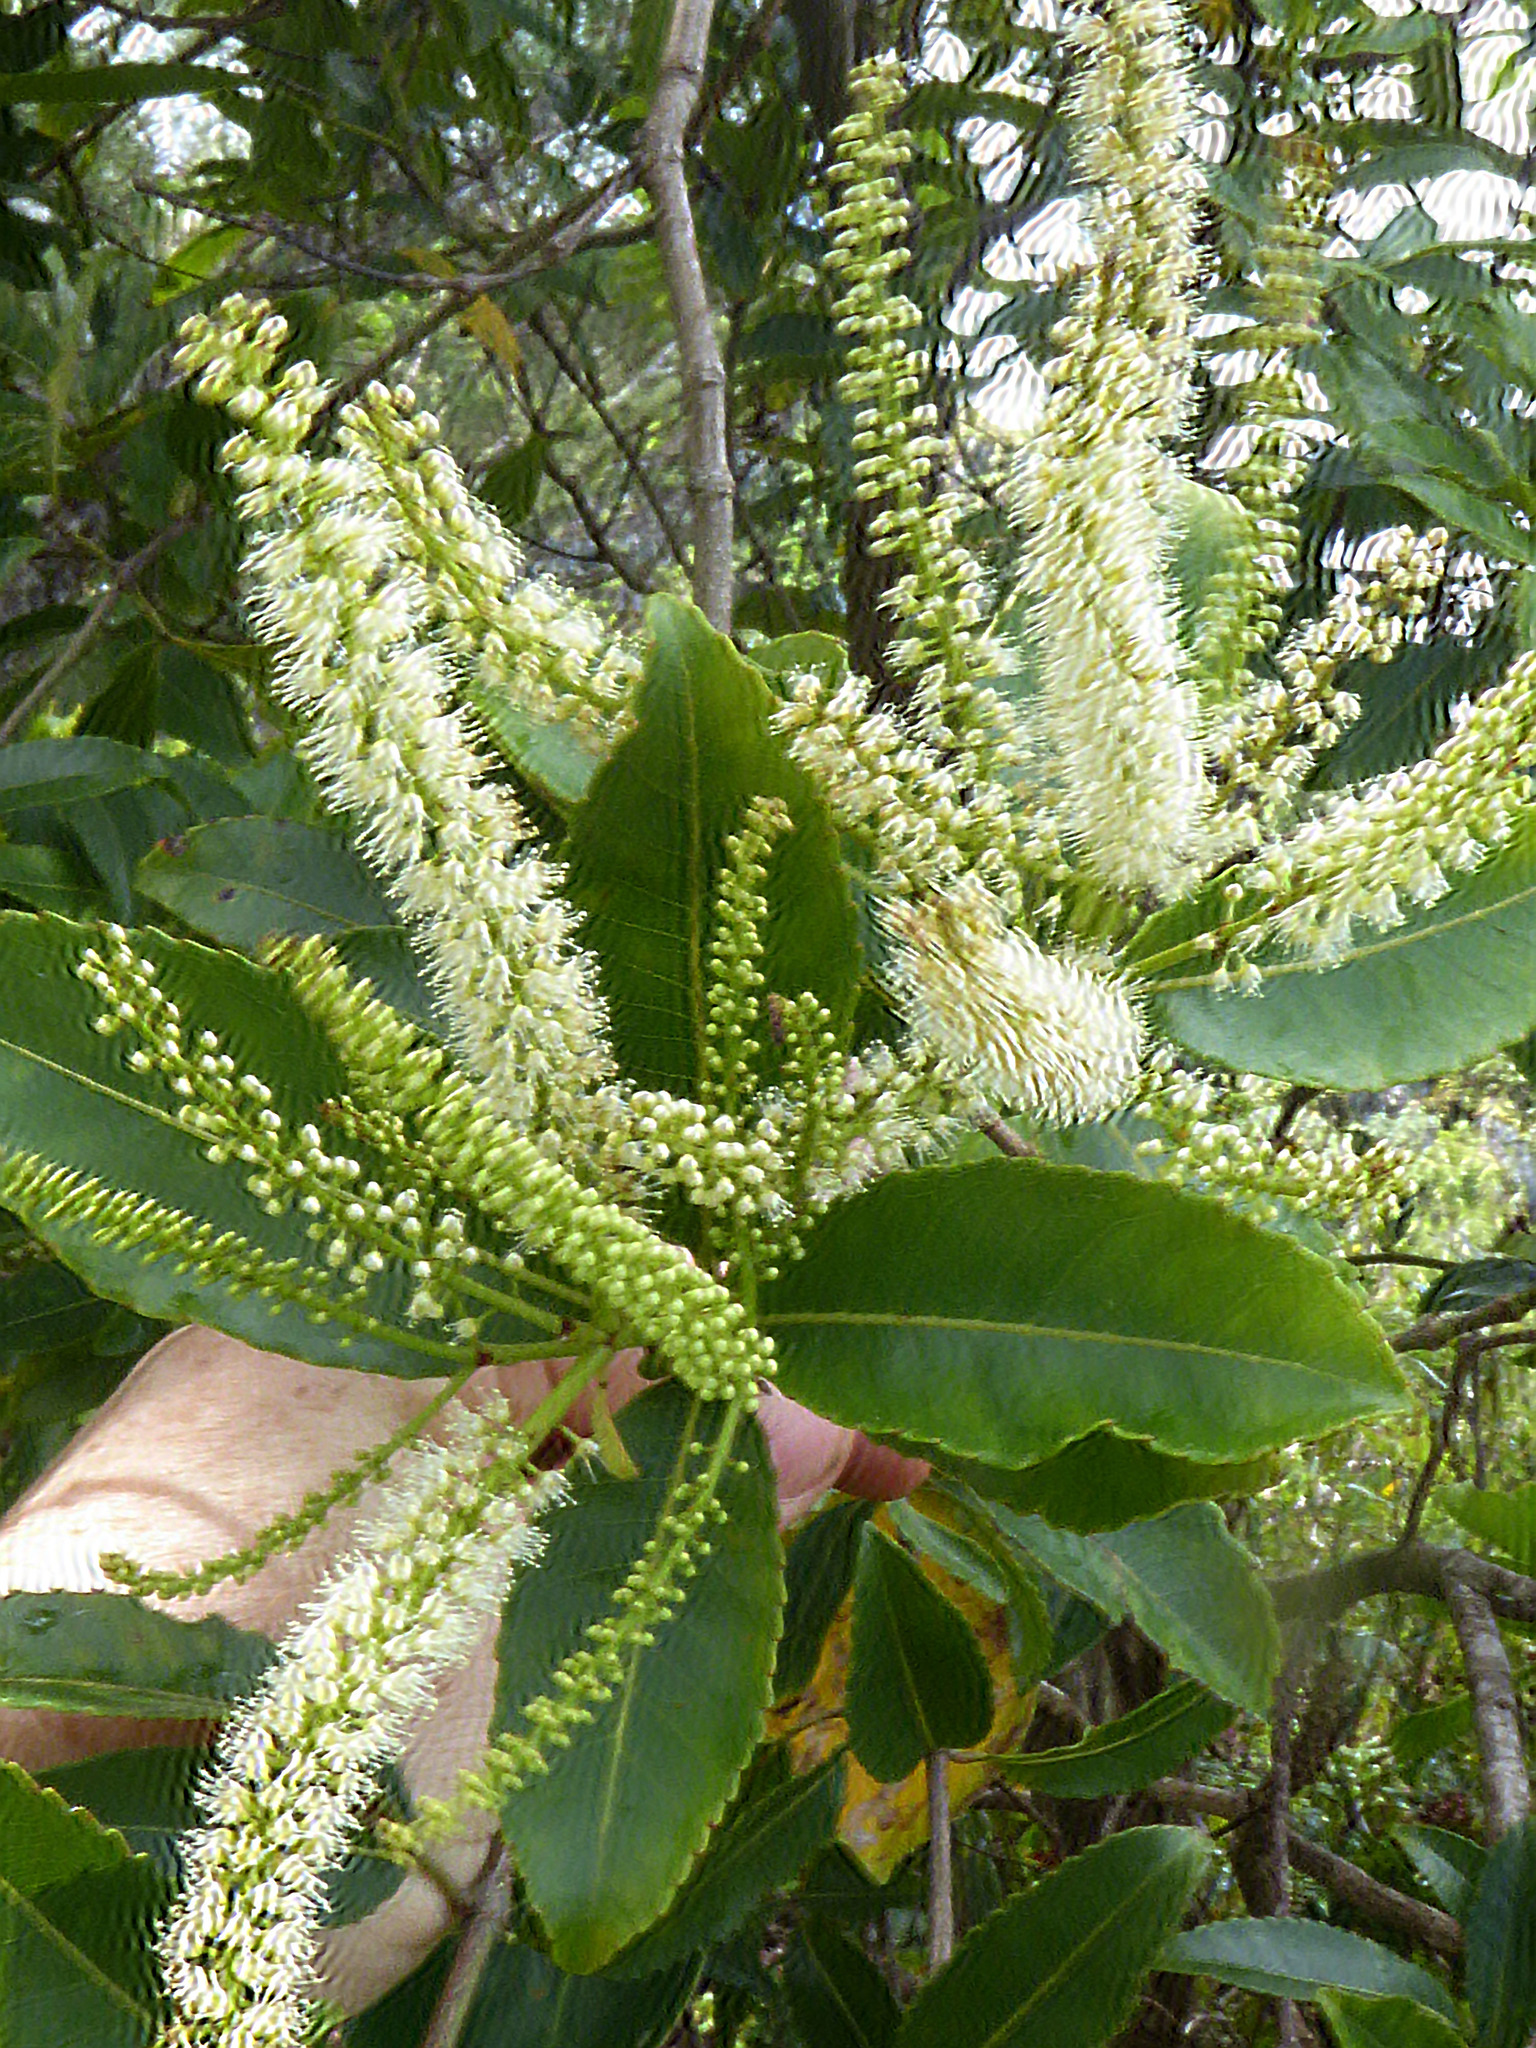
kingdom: Plantae
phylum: Tracheophyta
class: Magnoliopsida
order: Oxalidales
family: Cunoniaceae
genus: Pterophylla
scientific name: Pterophylla samoensis
